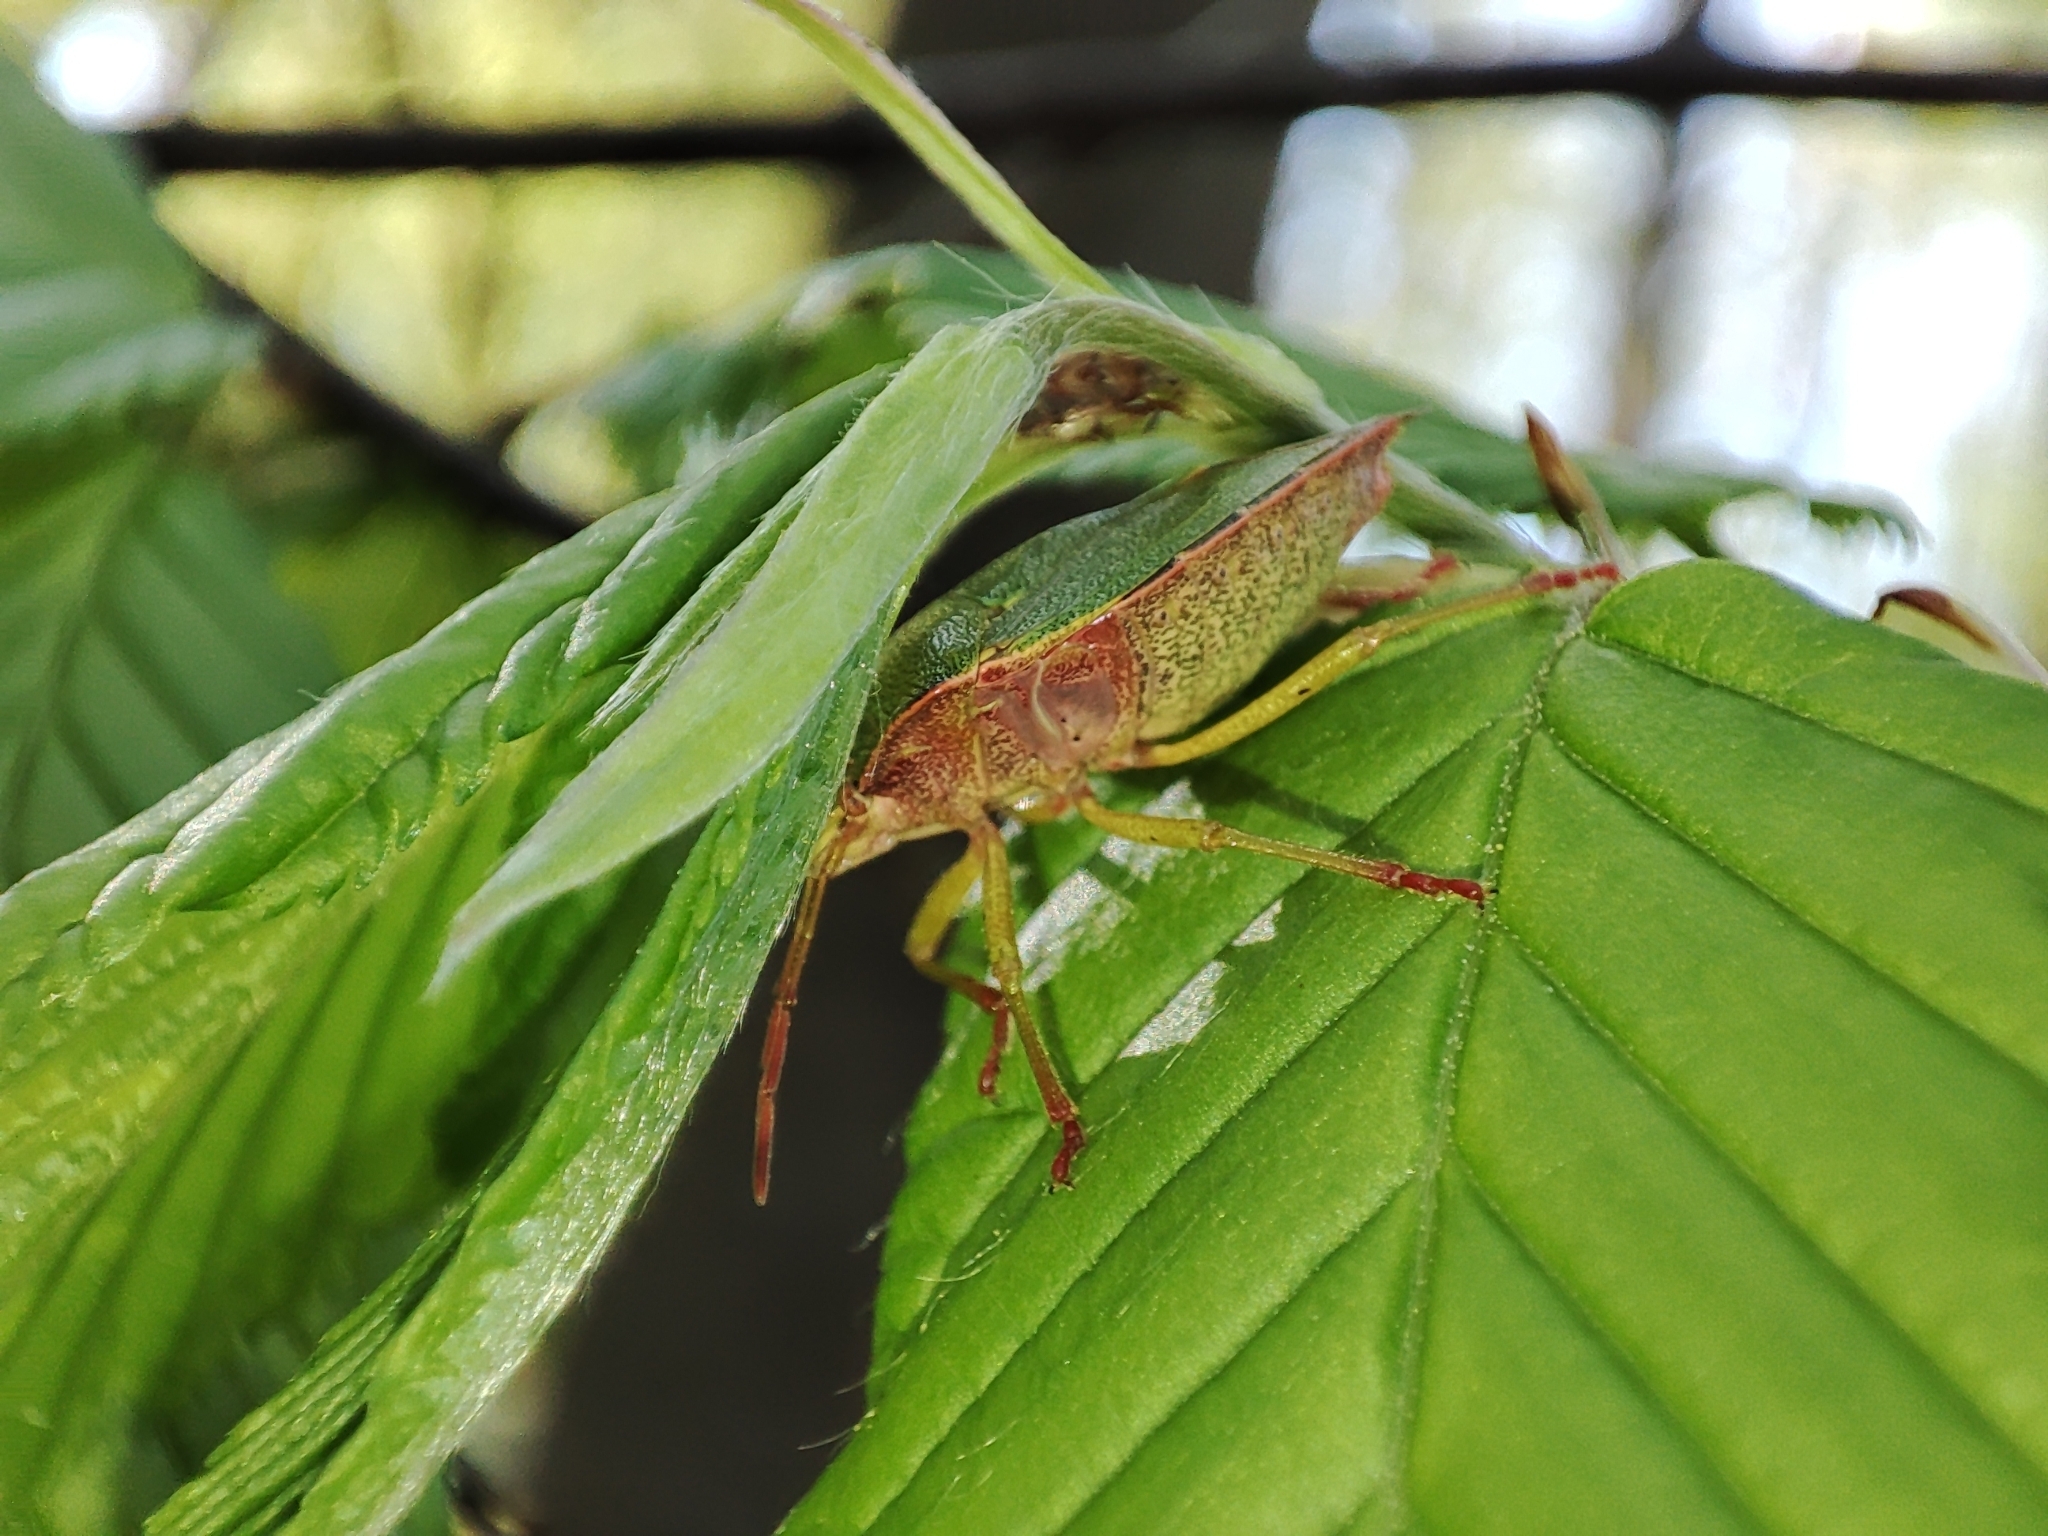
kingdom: Animalia
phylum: Arthropoda
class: Insecta
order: Hemiptera
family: Pentatomidae
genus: Palomena
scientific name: Palomena prasina
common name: Green shieldbug
